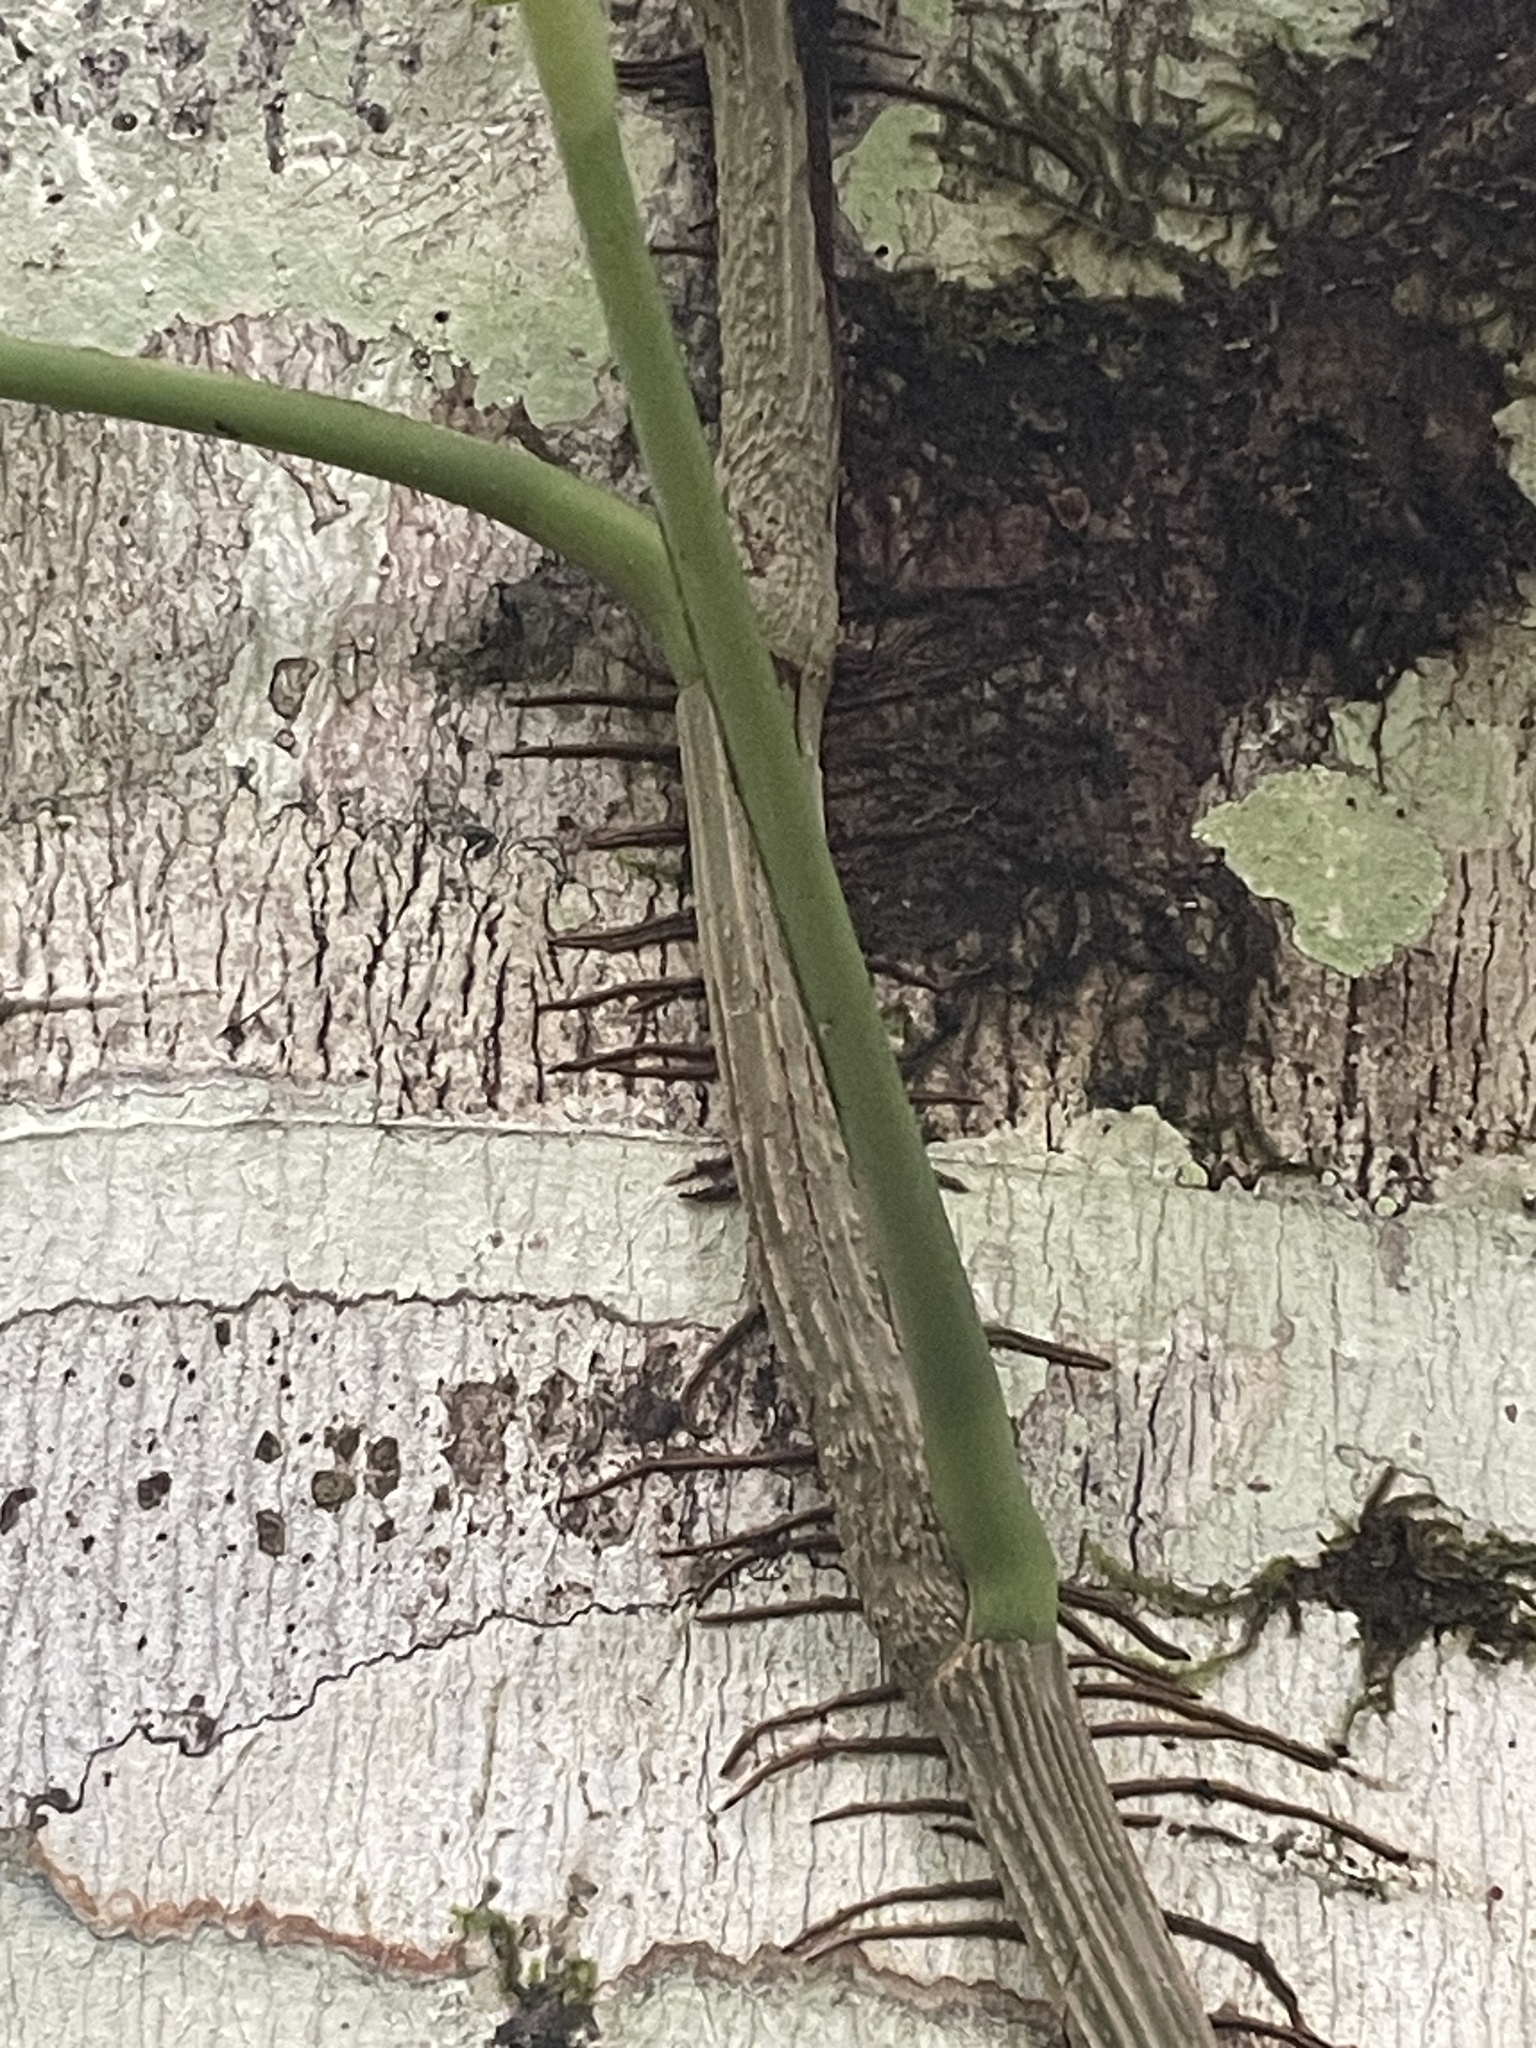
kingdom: Plantae
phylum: Tracheophyta
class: Liliopsida
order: Alismatales
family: Araceae
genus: Epipremnum
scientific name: Epipremnum pinnatum
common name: Centipede tongavine
